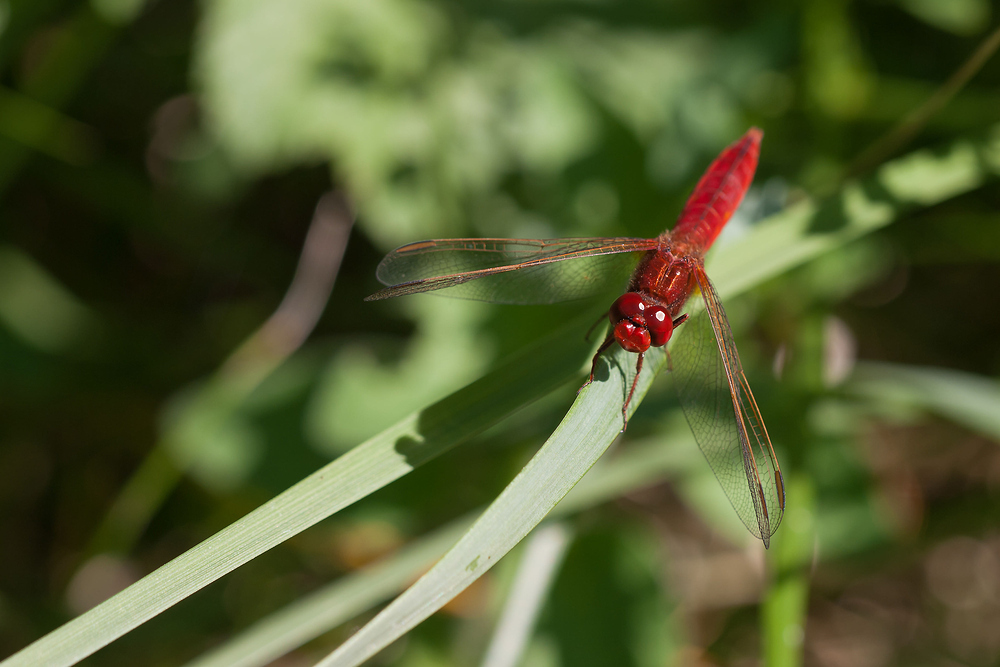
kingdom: Animalia
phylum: Arthropoda
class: Insecta
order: Odonata
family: Libellulidae
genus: Crocothemis
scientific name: Crocothemis erythraea
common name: Scarlet dragonfly
